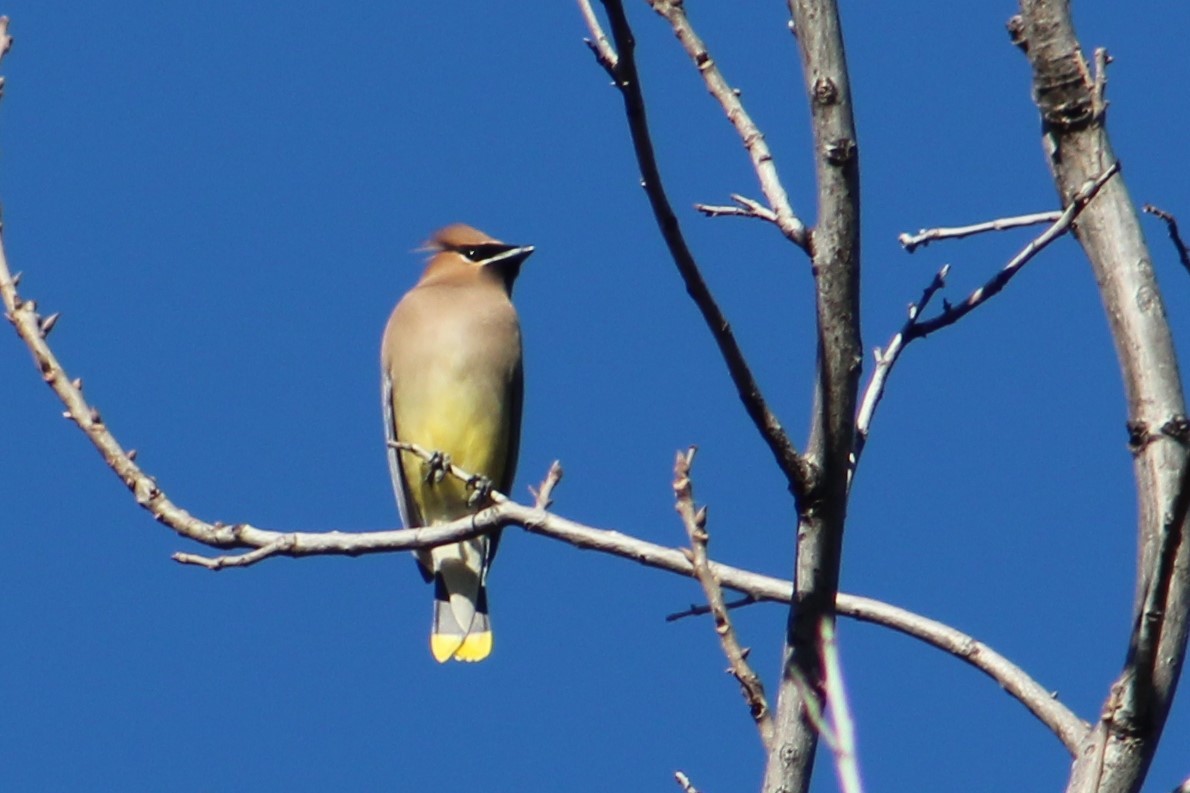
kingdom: Animalia
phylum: Chordata
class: Aves
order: Passeriformes
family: Bombycillidae
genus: Bombycilla
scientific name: Bombycilla cedrorum
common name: Cedar waxwing
